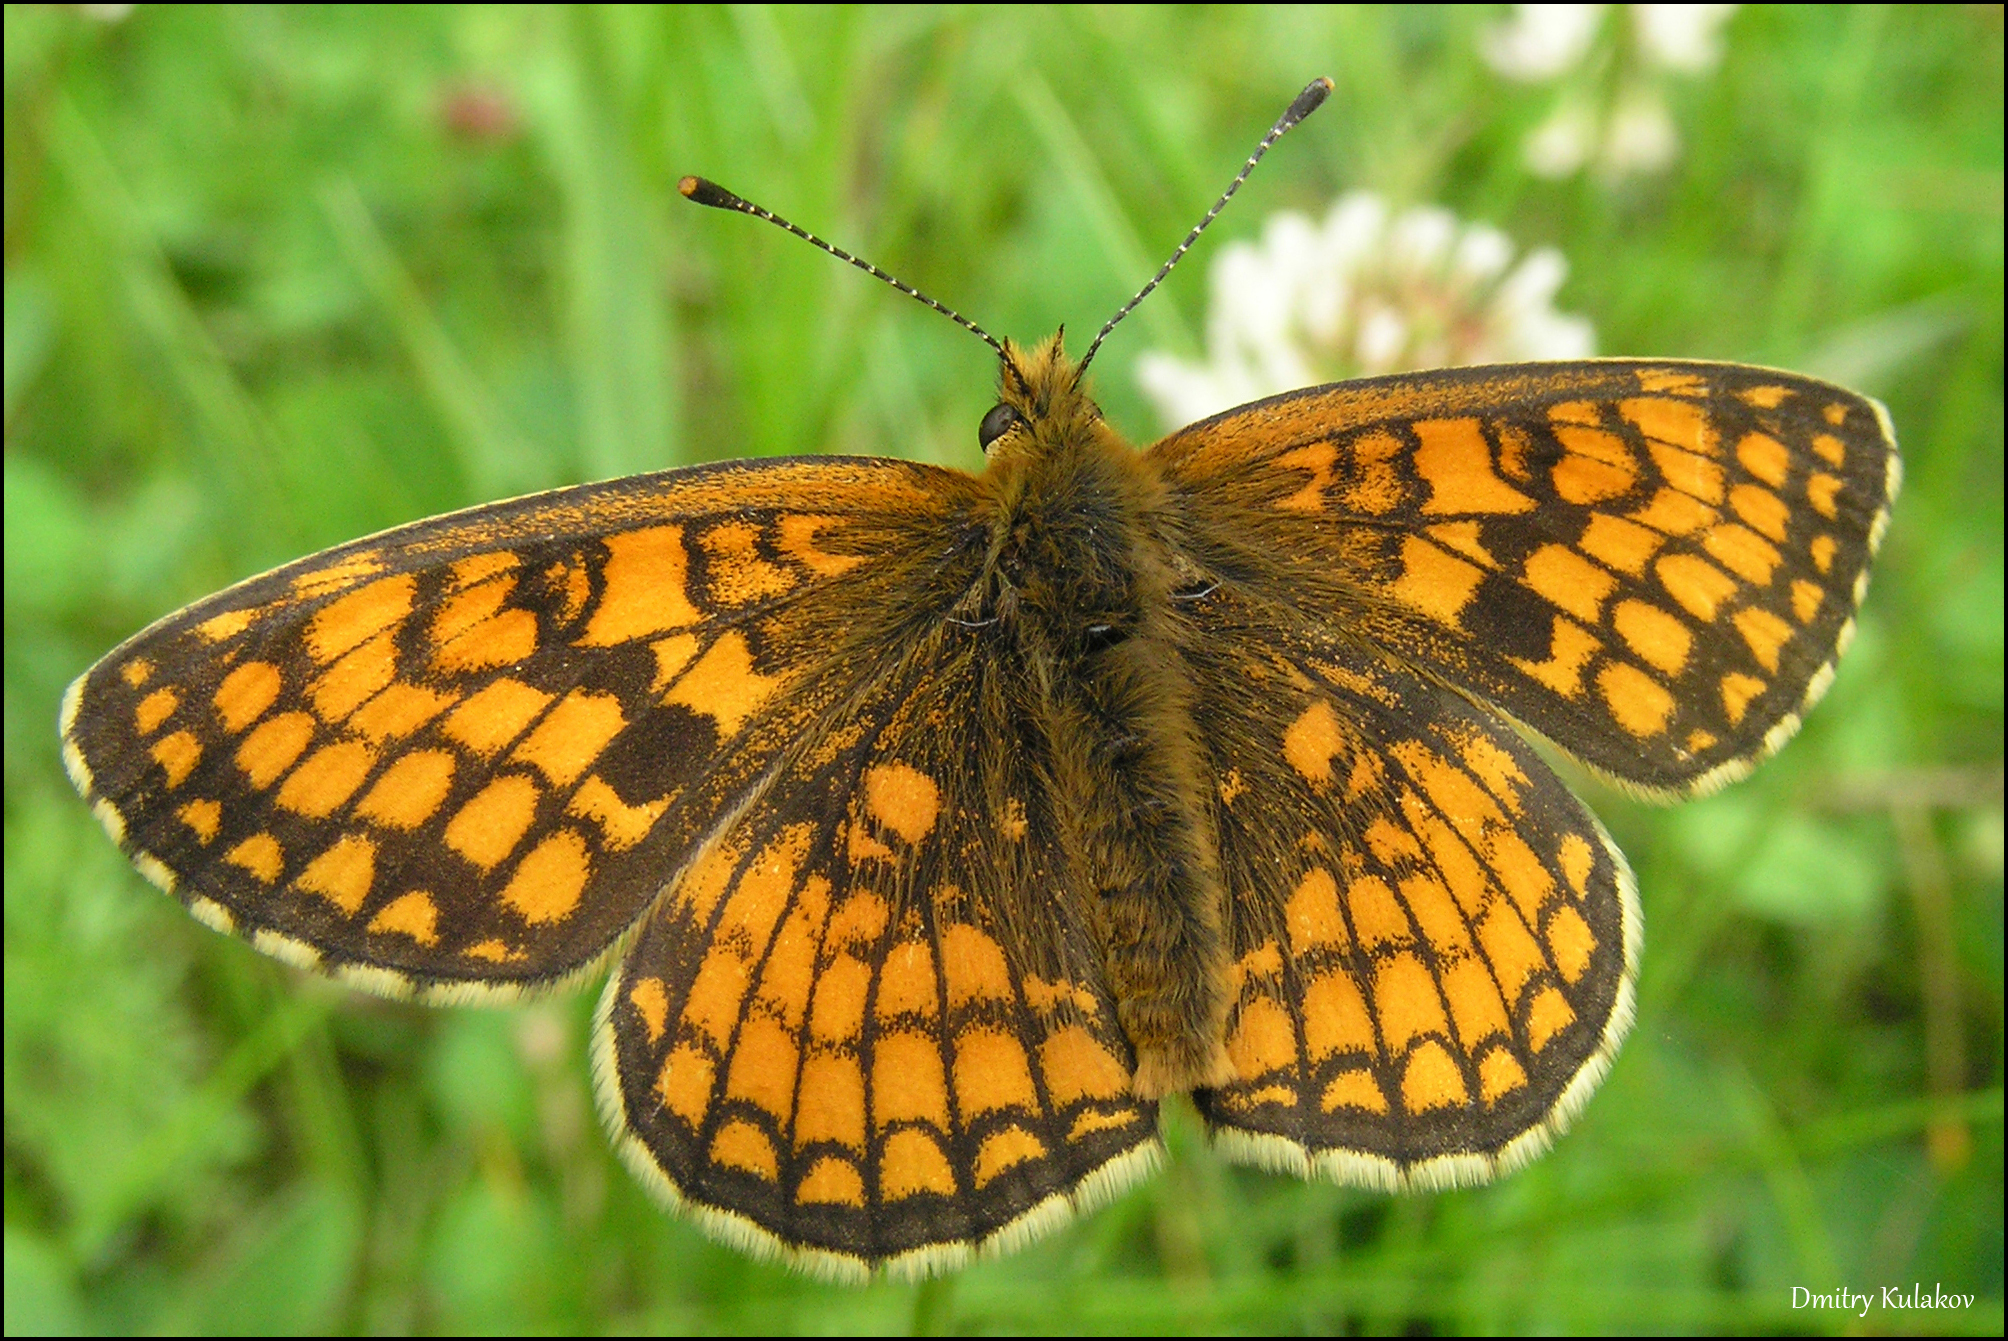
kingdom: Animalia
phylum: Arthropoda
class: Insecta
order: Lepidoptera
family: Nymphalidae
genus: Melitaea
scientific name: Melitaea athalia
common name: Heath fritillary
